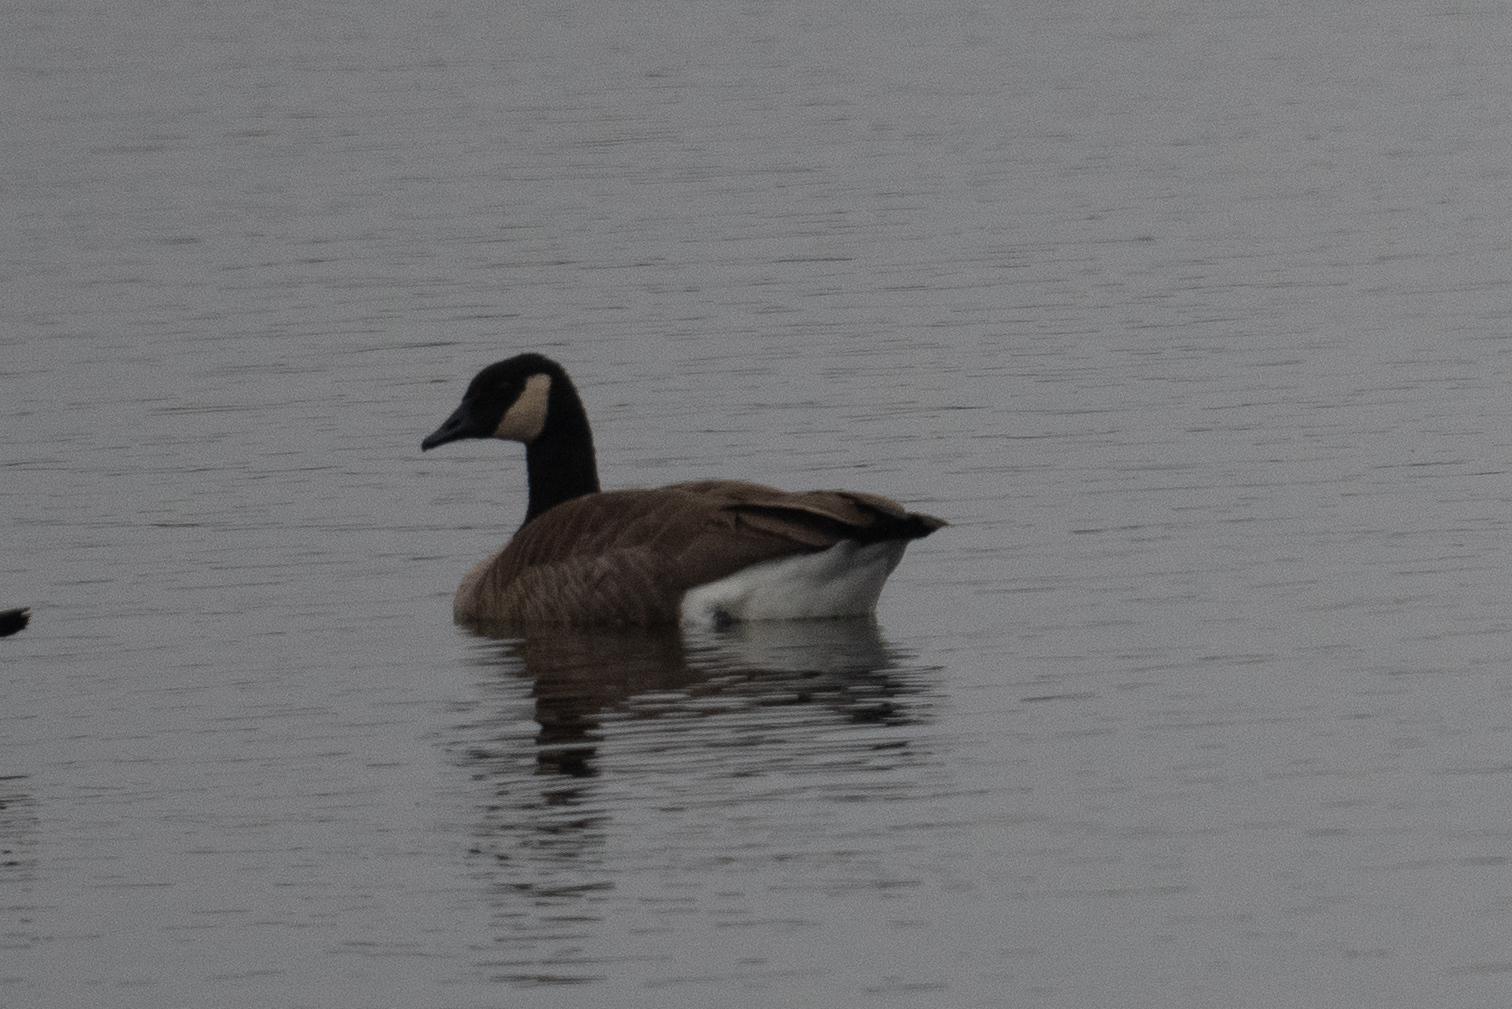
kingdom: Animalia
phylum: Chordata
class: Aves
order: Anseriformes
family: Anatidae
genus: Branta
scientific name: Branta canadensis
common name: Canada goose
